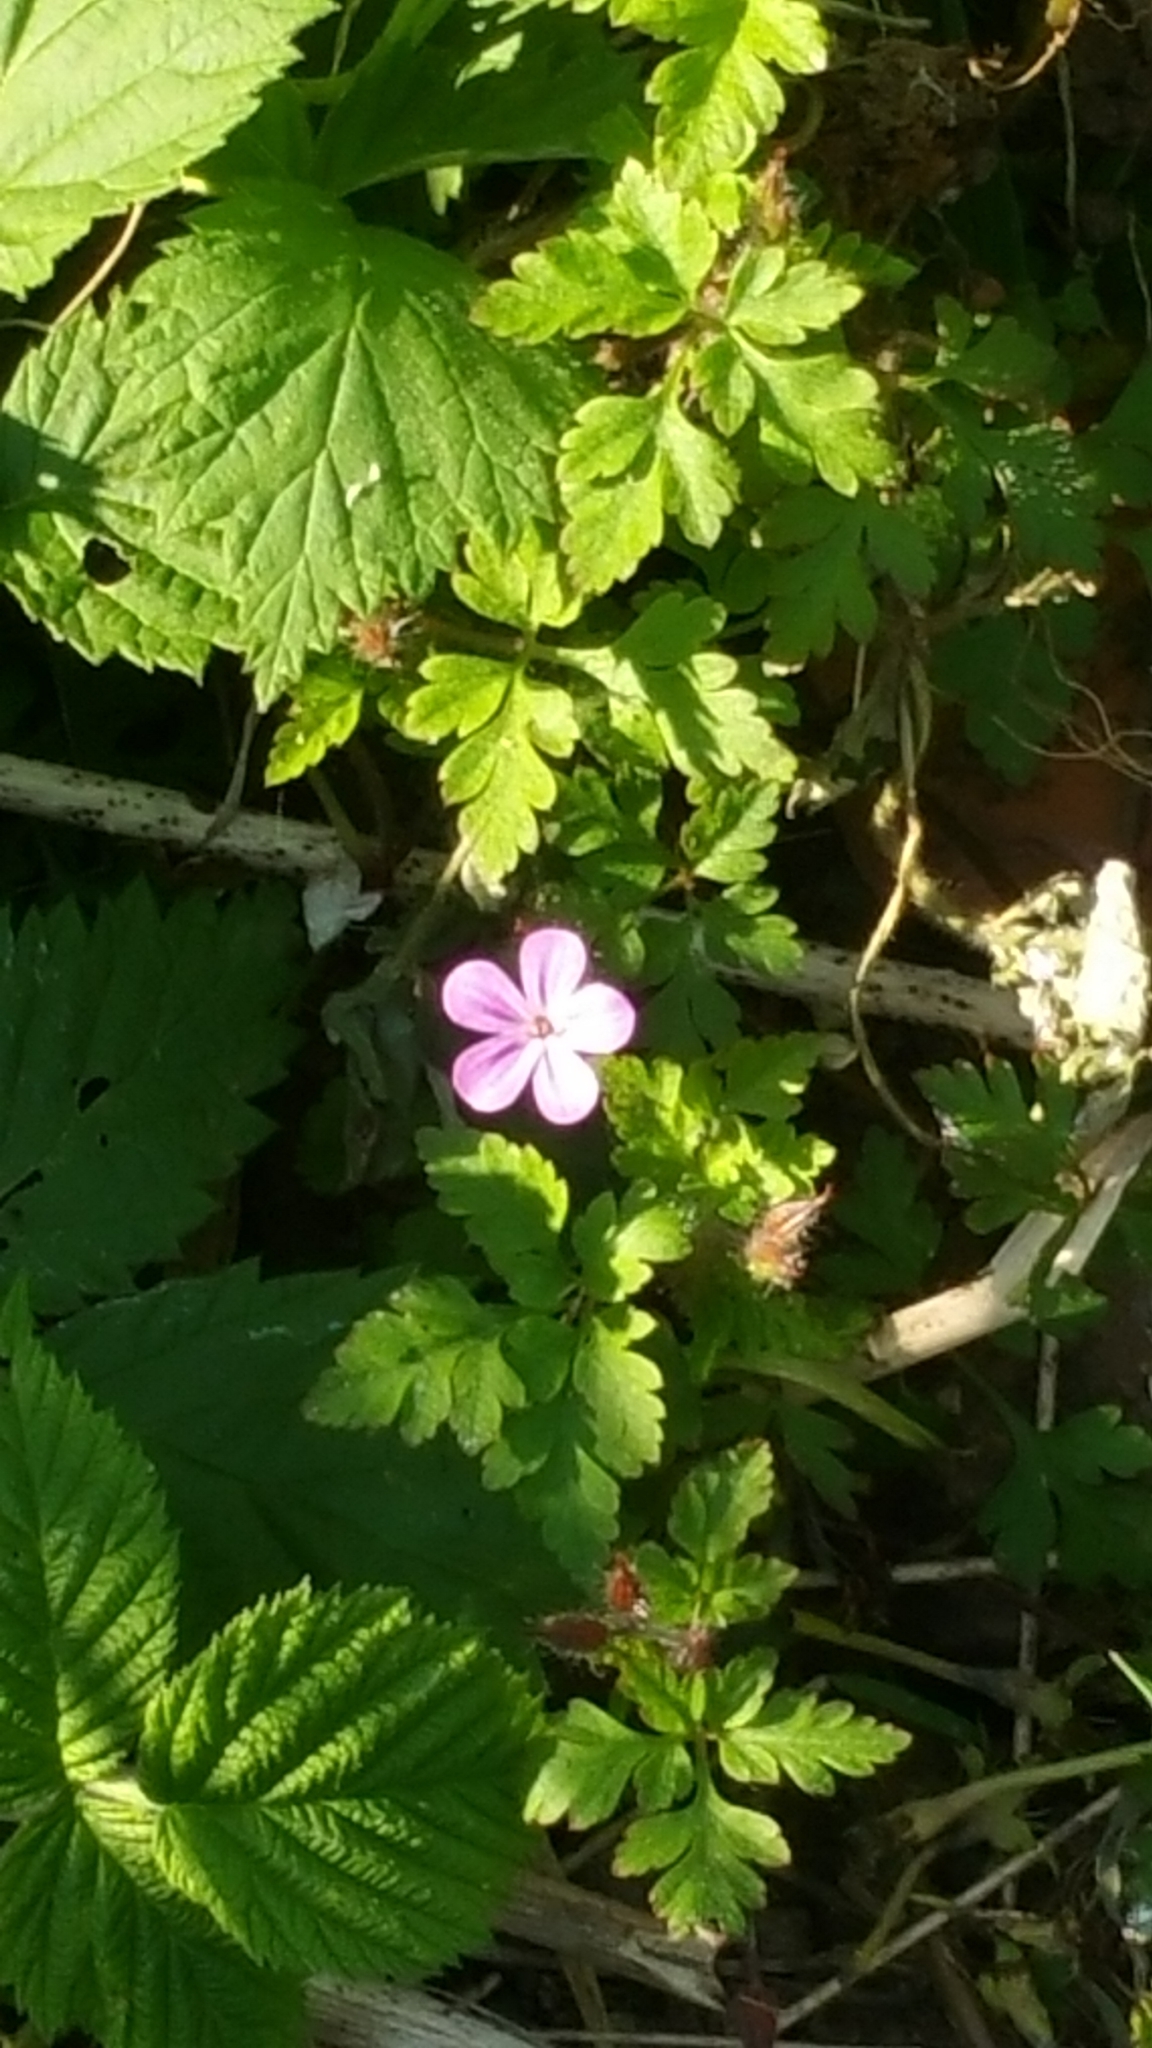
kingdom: Plantae
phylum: Tracheophyta
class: Magnoliopsida
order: Geraniales
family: Geraniaceae
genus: Geranium
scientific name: Geranium robertianum
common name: Herb-robert
